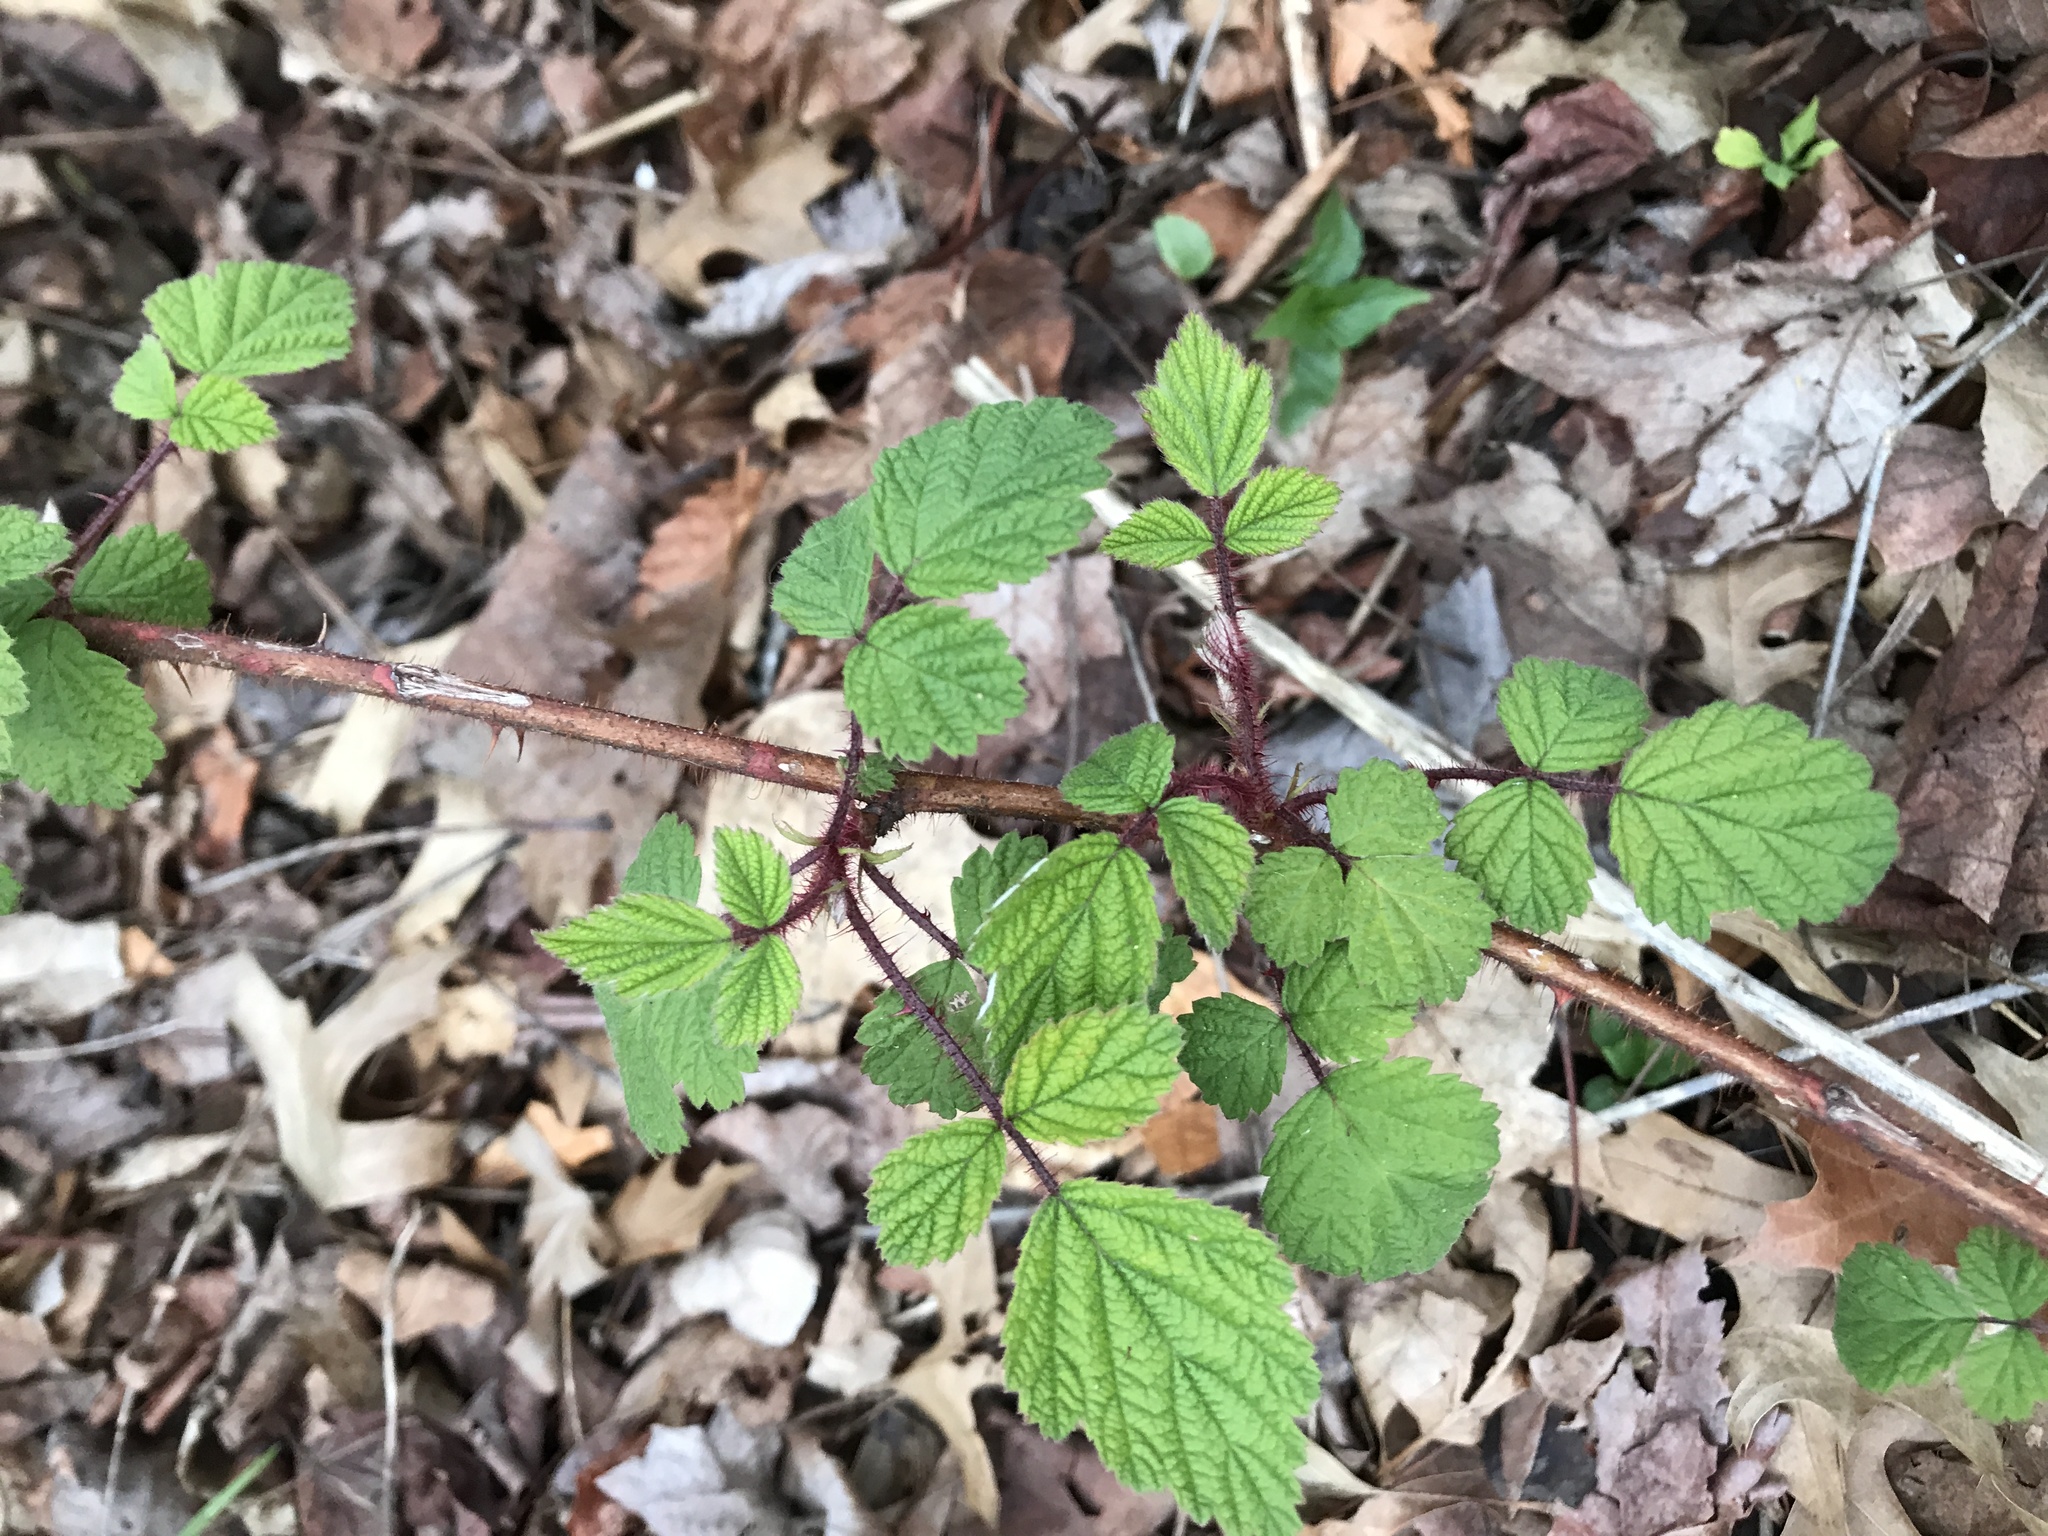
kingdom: Plantae
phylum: Tracheophyta
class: Magnoliopsida
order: Rosales
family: Rosaceae
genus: Rubus
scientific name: Rubus phoenicolasius
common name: Japanese wineberry
